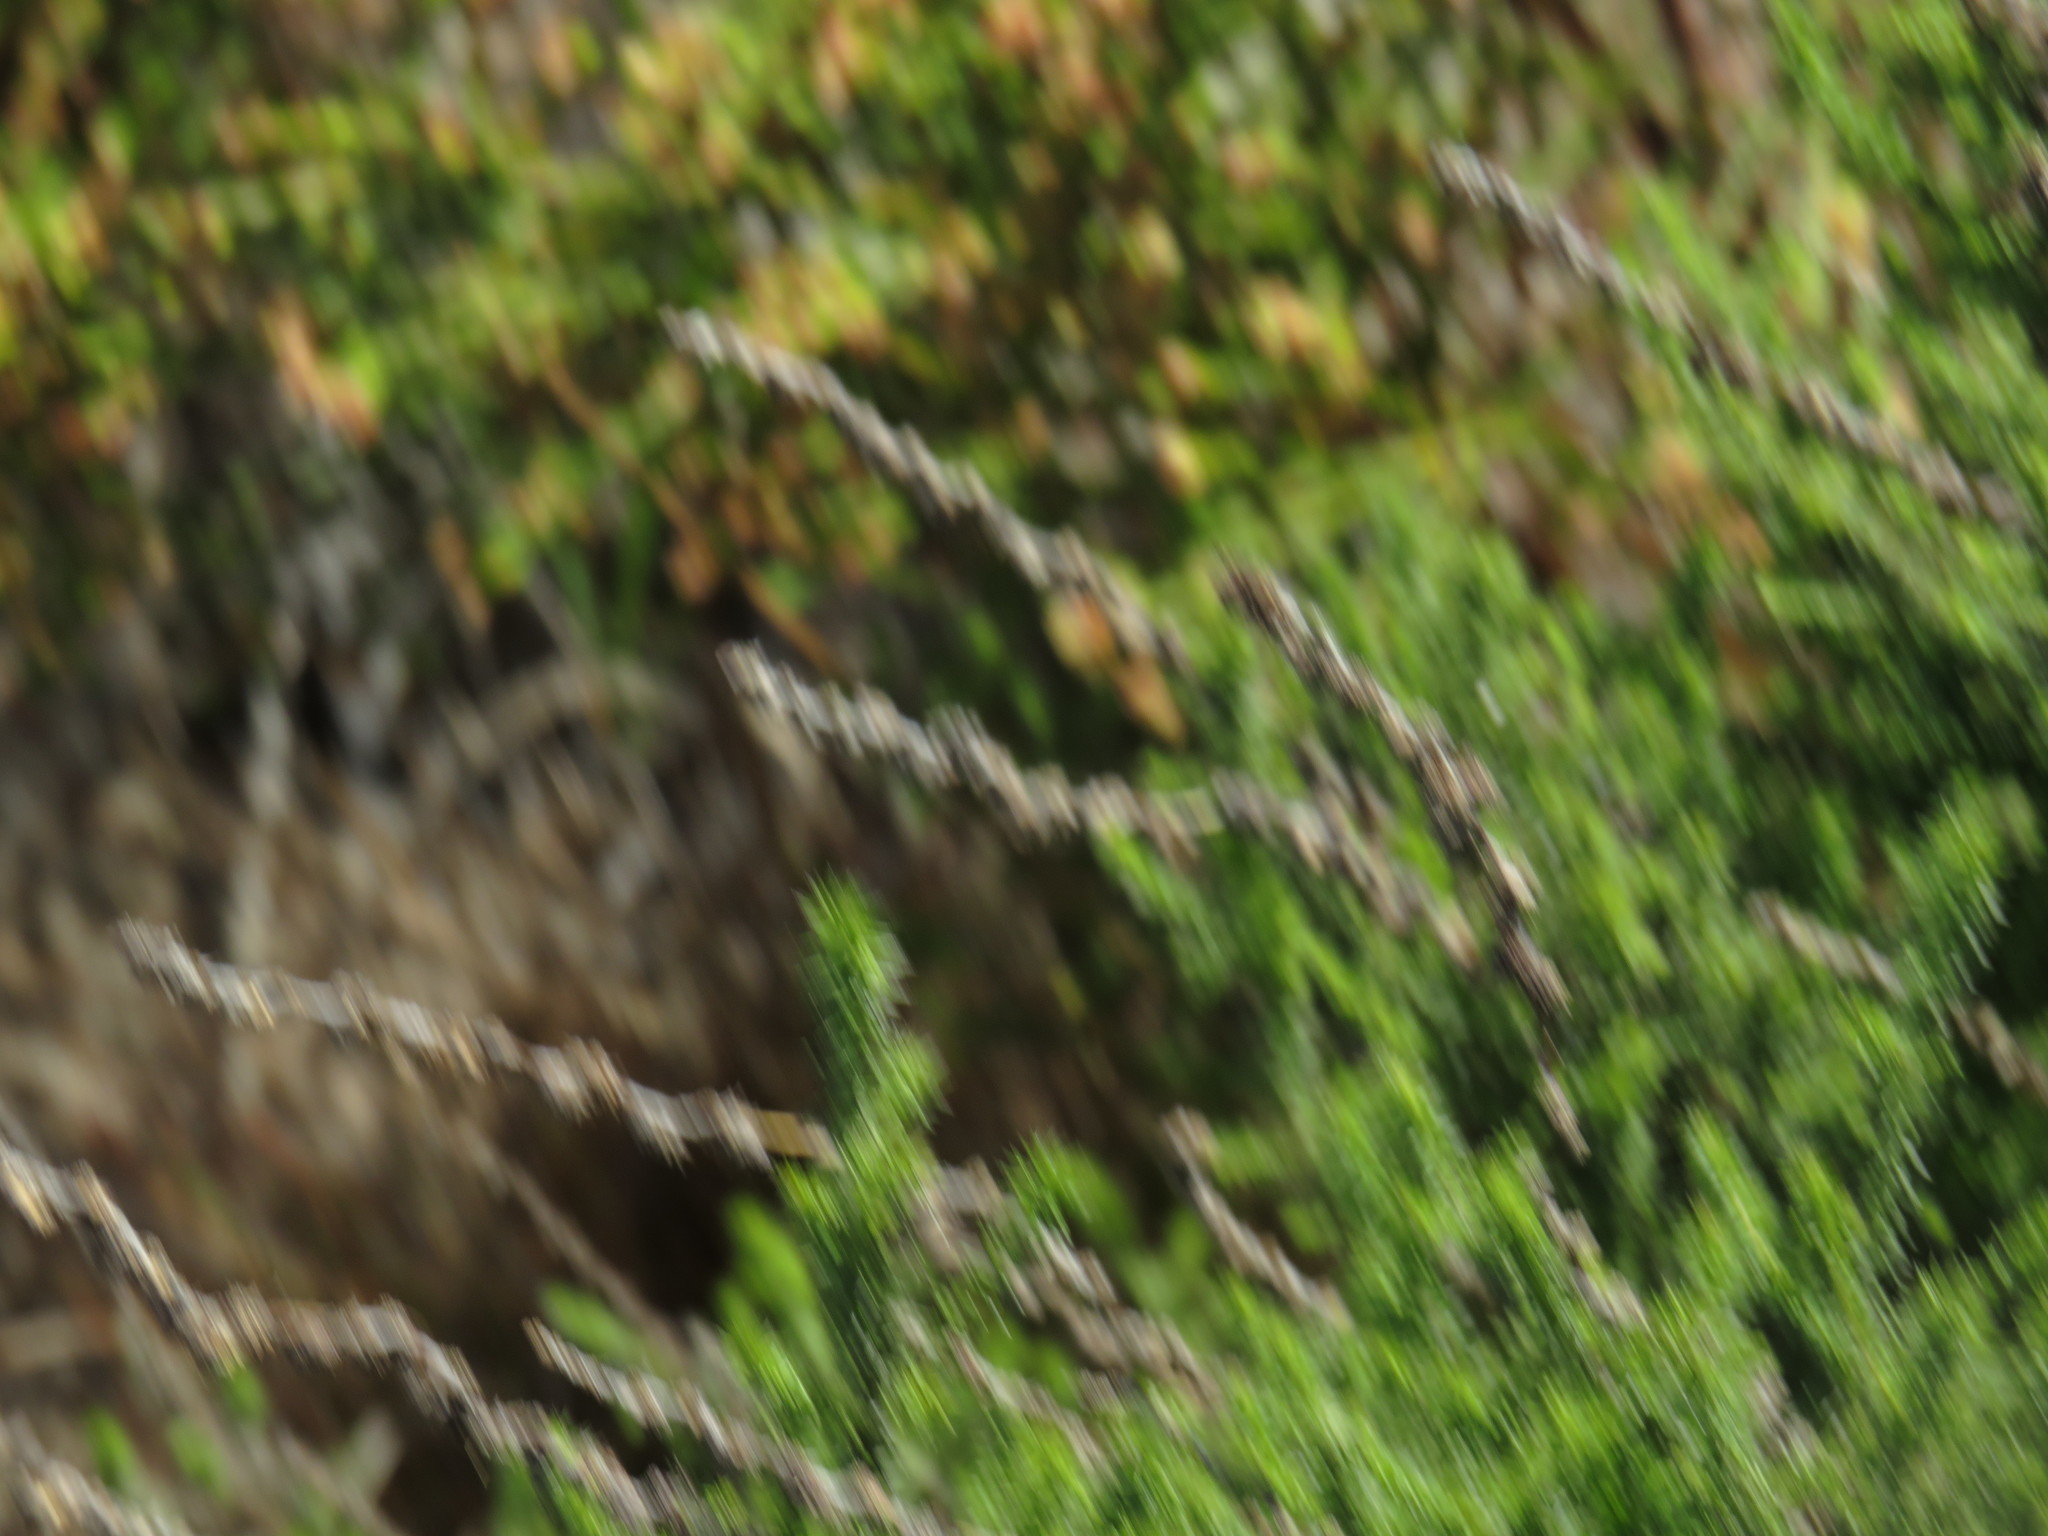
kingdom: Plantae
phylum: Tracheophyta
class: Magnoliopsida
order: Asterales
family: Asteraceae
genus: Seriphium
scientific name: Seriphium cinereum
